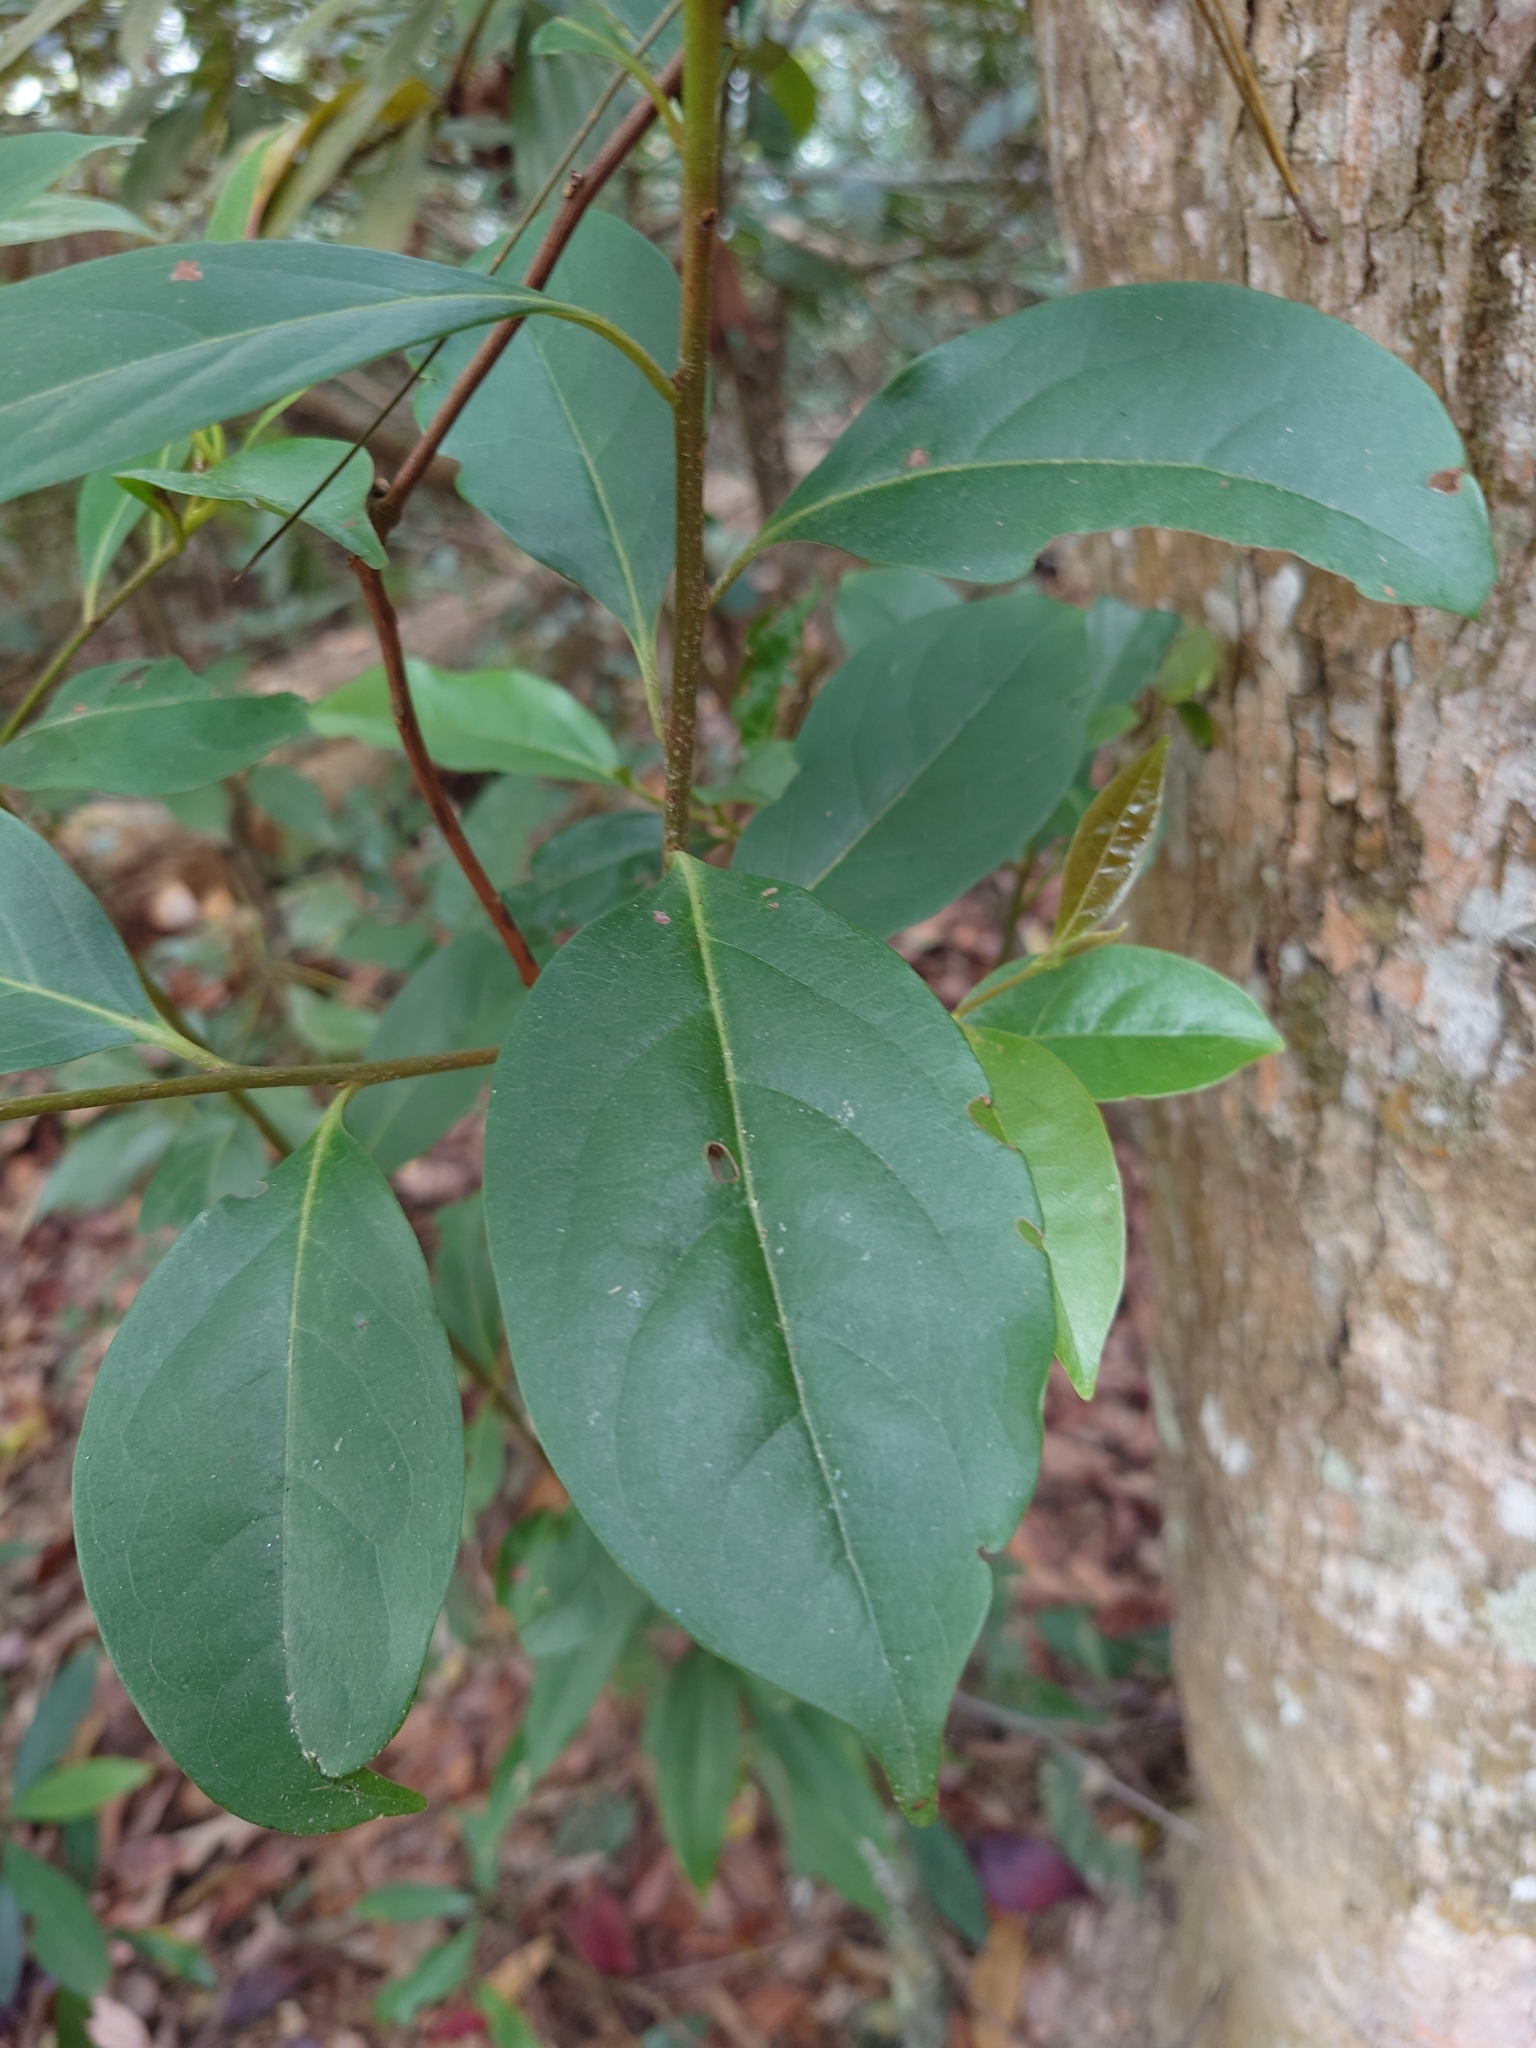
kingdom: Plantae
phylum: Tracheophyta
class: Magnoliopsida
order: Ericales
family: Ebenaceae
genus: Diospyros
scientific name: Diospyros morrisiana
